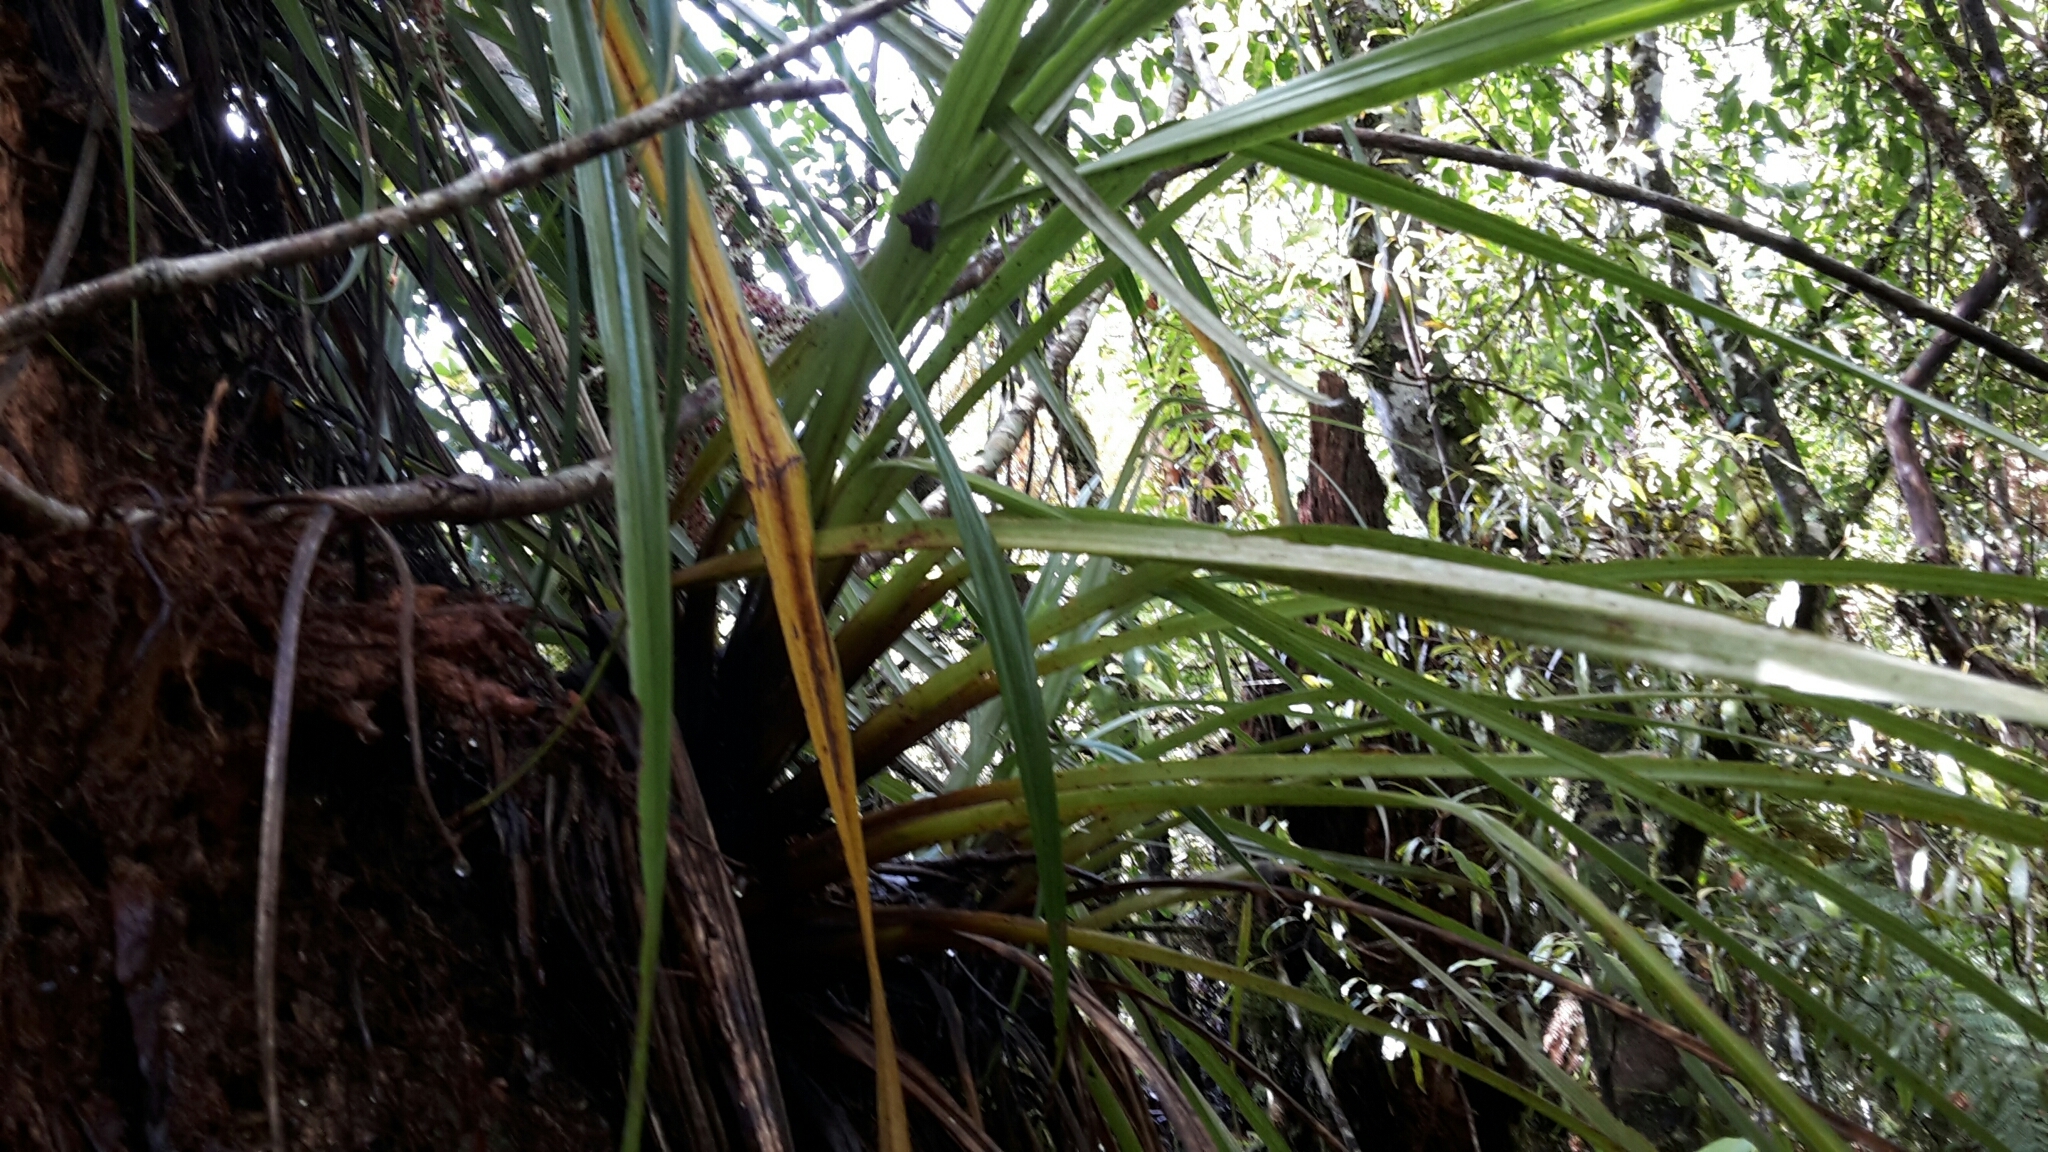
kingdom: Plantae
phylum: Tracheophyta
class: Liliopsida
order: Asparagales
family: Asteliaceae
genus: Astelia
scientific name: Astelia microsperma
